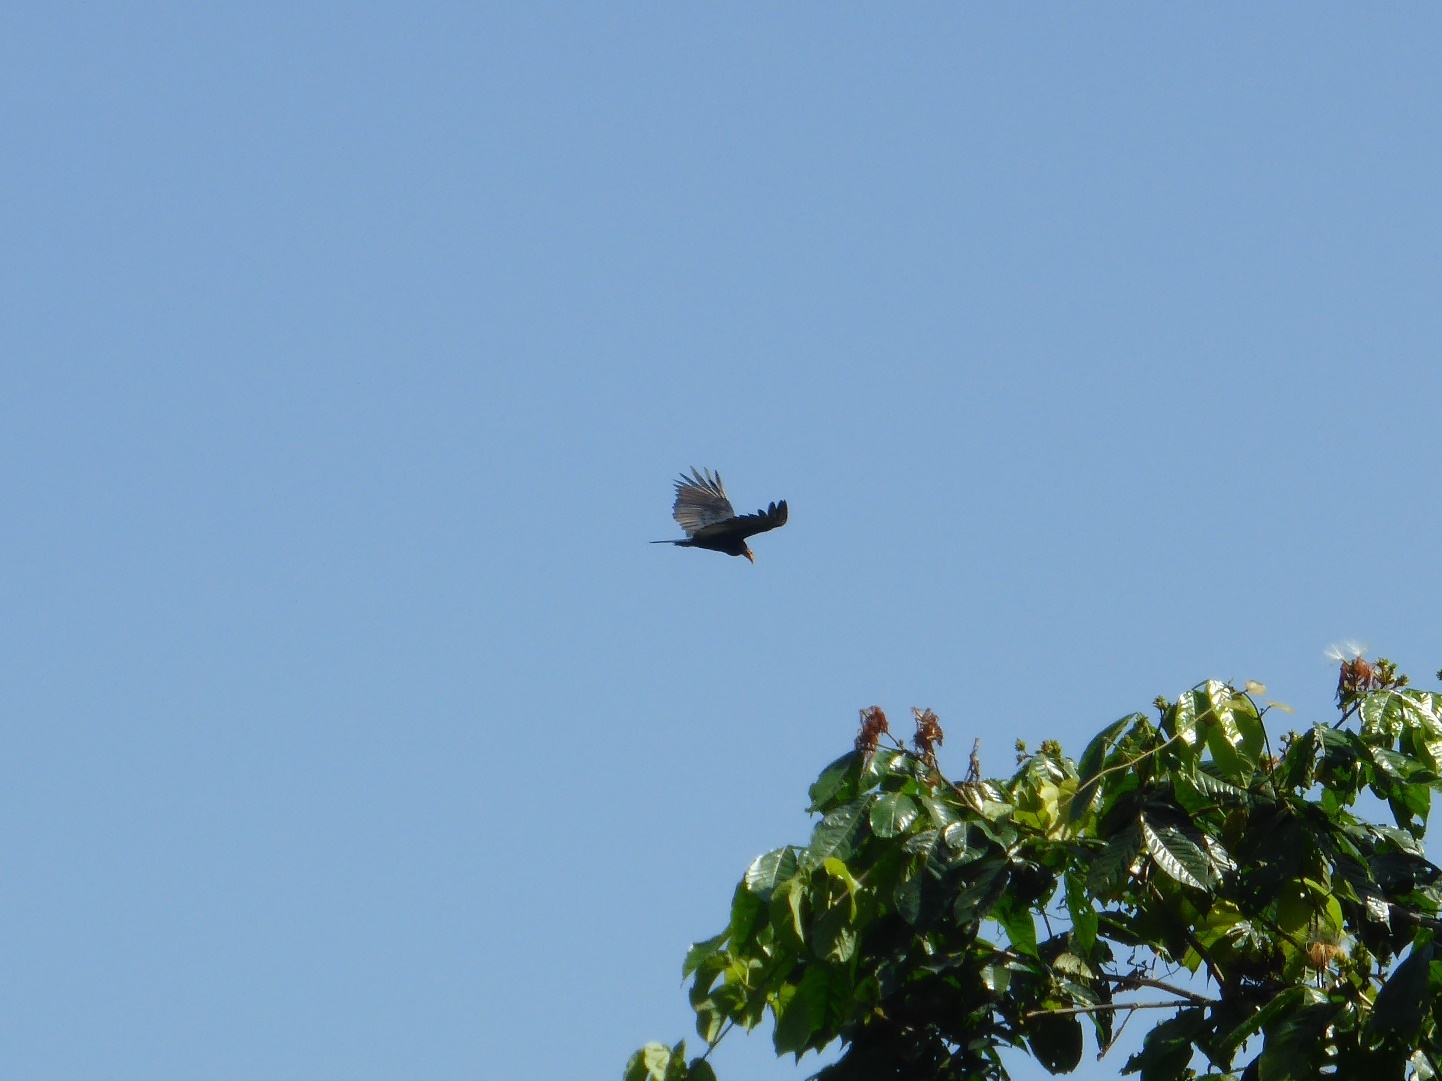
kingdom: Animalia
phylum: Chordata
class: Aves
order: Accipitriformes
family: Cathartidae
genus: Cathartes
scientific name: Cathartes melambrotus
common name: Greater yellow-headed vulture
